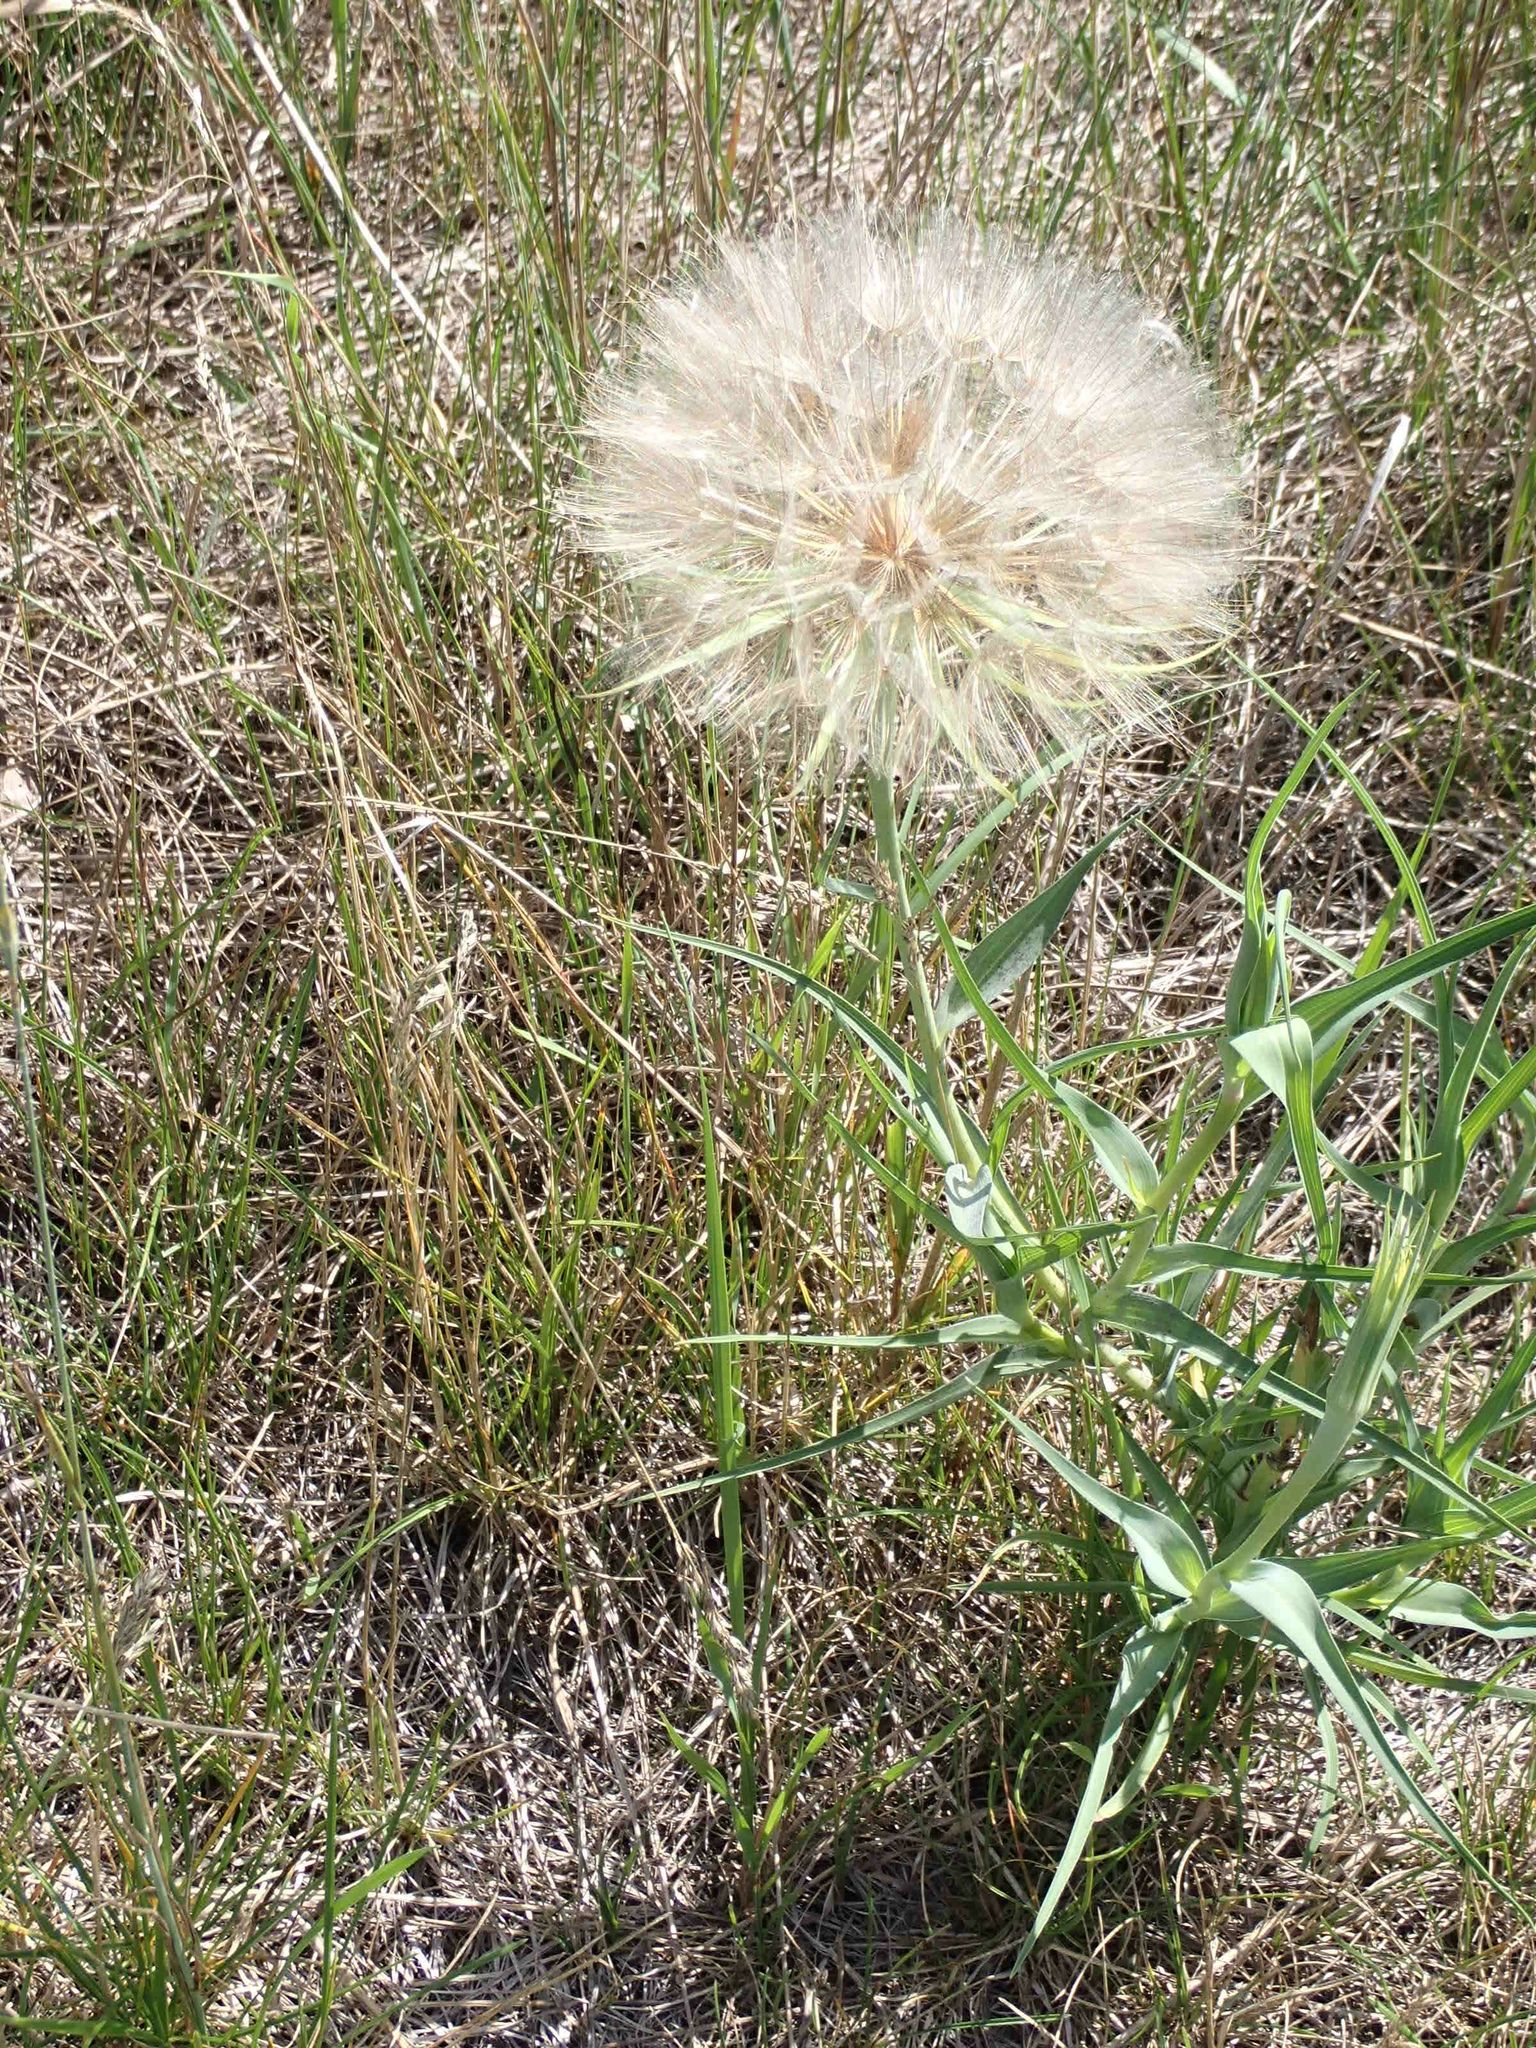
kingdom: Plantae
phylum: Tracheophyta
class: Magnoliopsida
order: Asterales
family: Asteraceae
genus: Tragopogon
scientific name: Tragopogon dubius
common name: Yellow salsify
